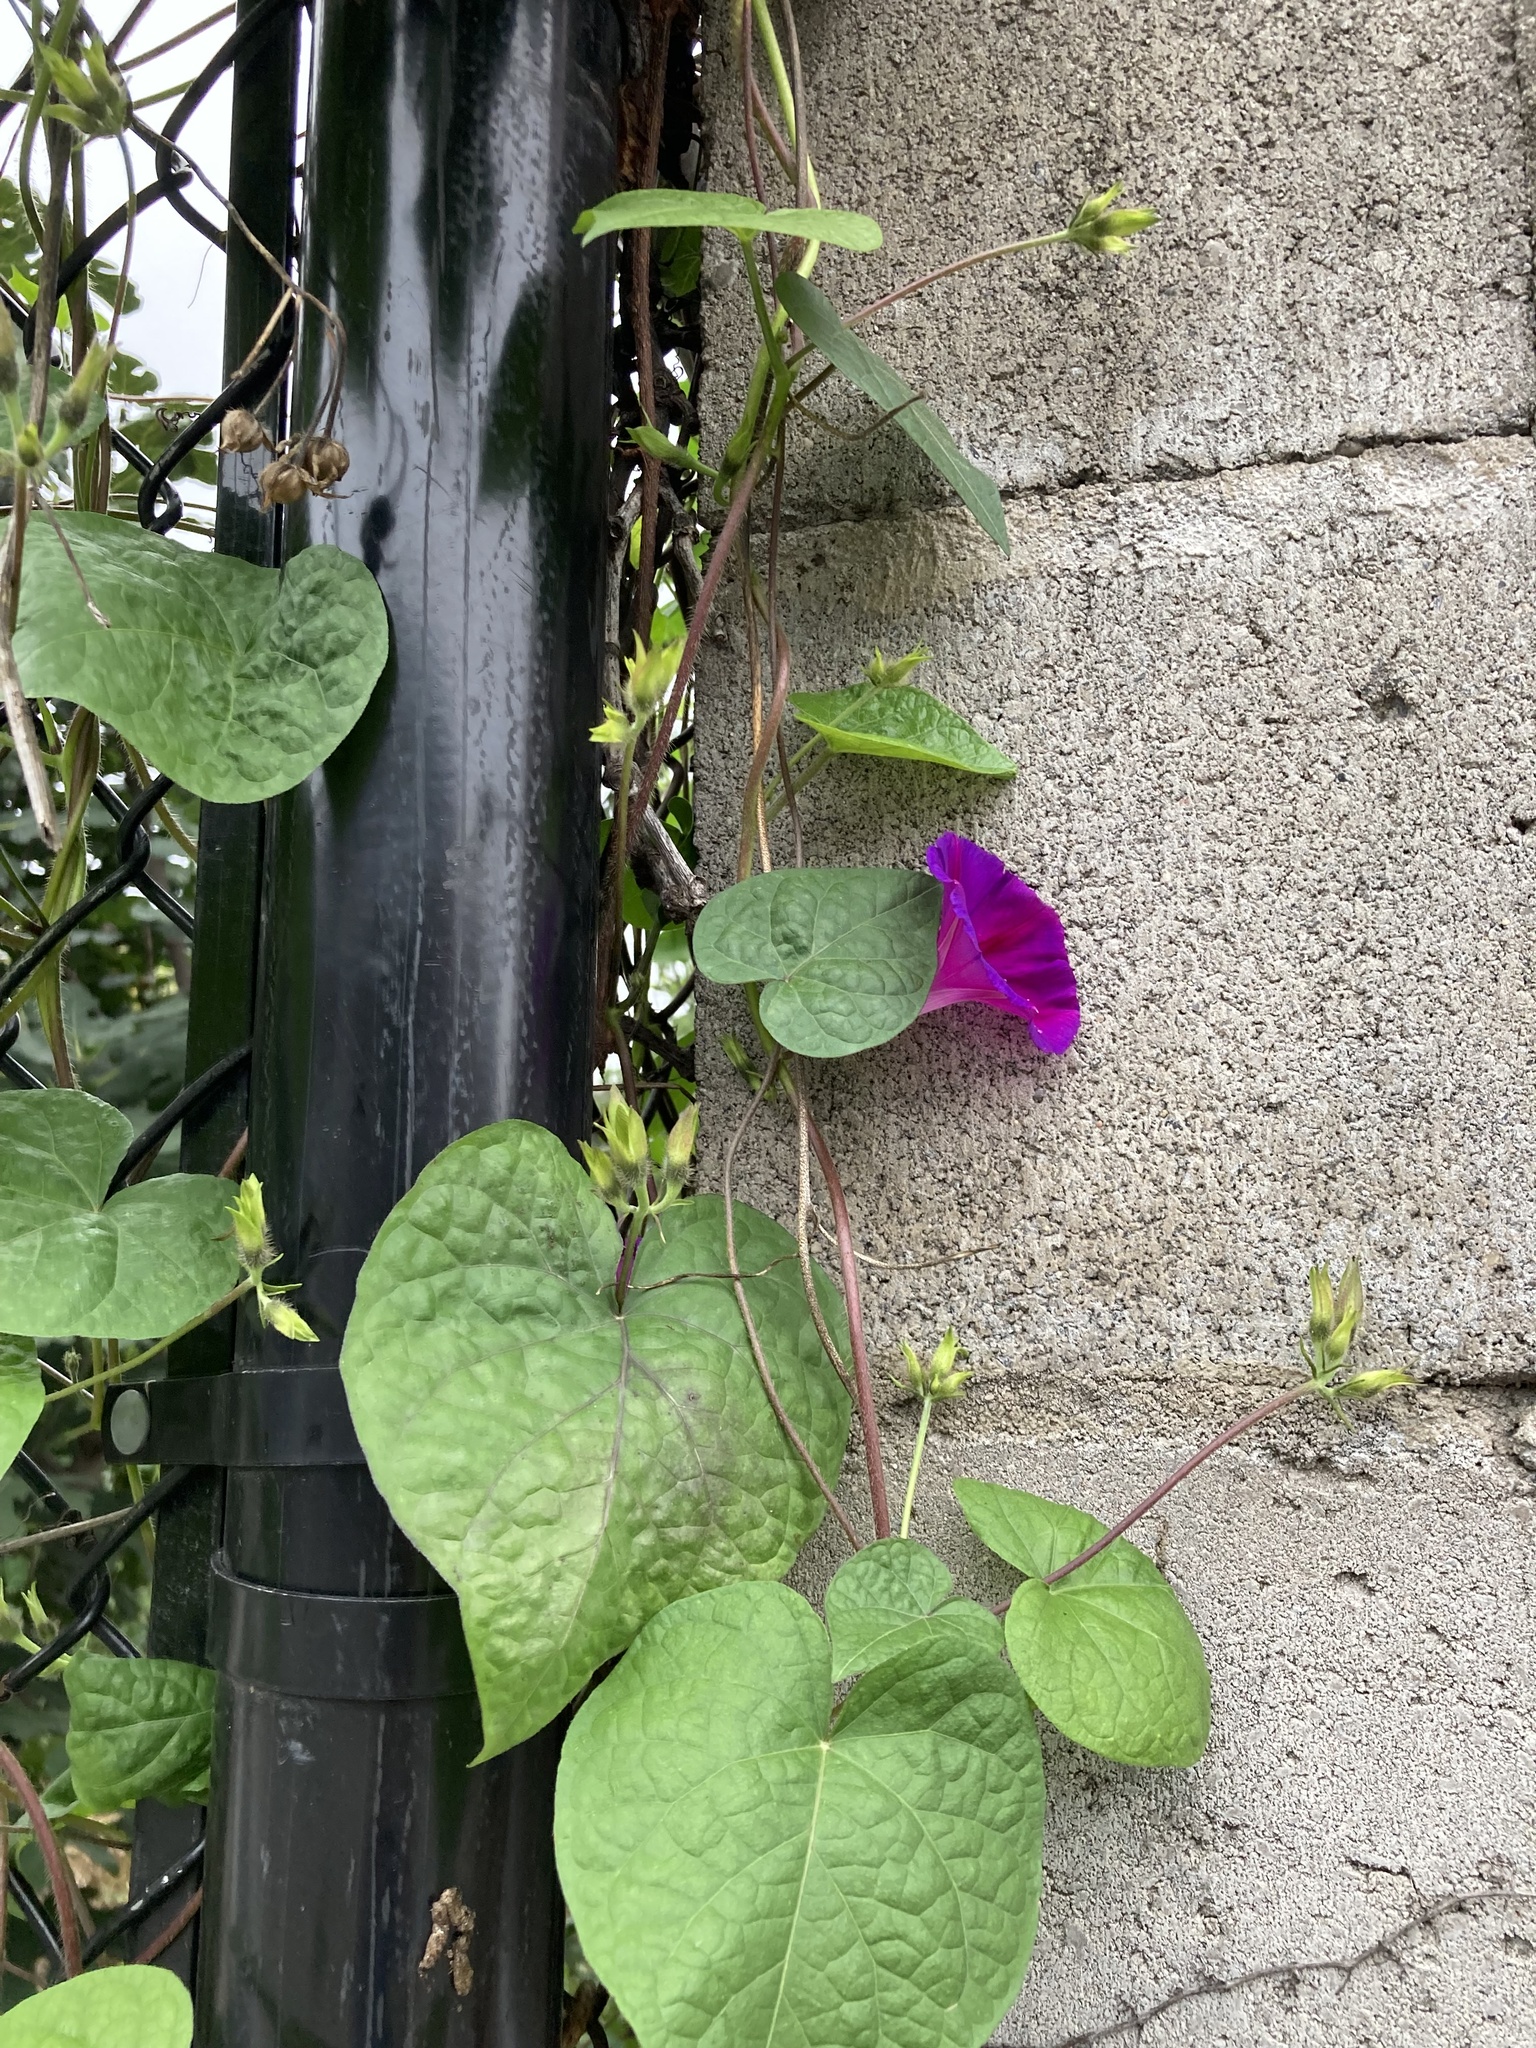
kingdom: Plantae
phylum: Tracheophyta
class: Magnoliopsida
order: Solanales
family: Convolvulaceae
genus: Ipomoea
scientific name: Ipomoea purpurea
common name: Common morning-glory
